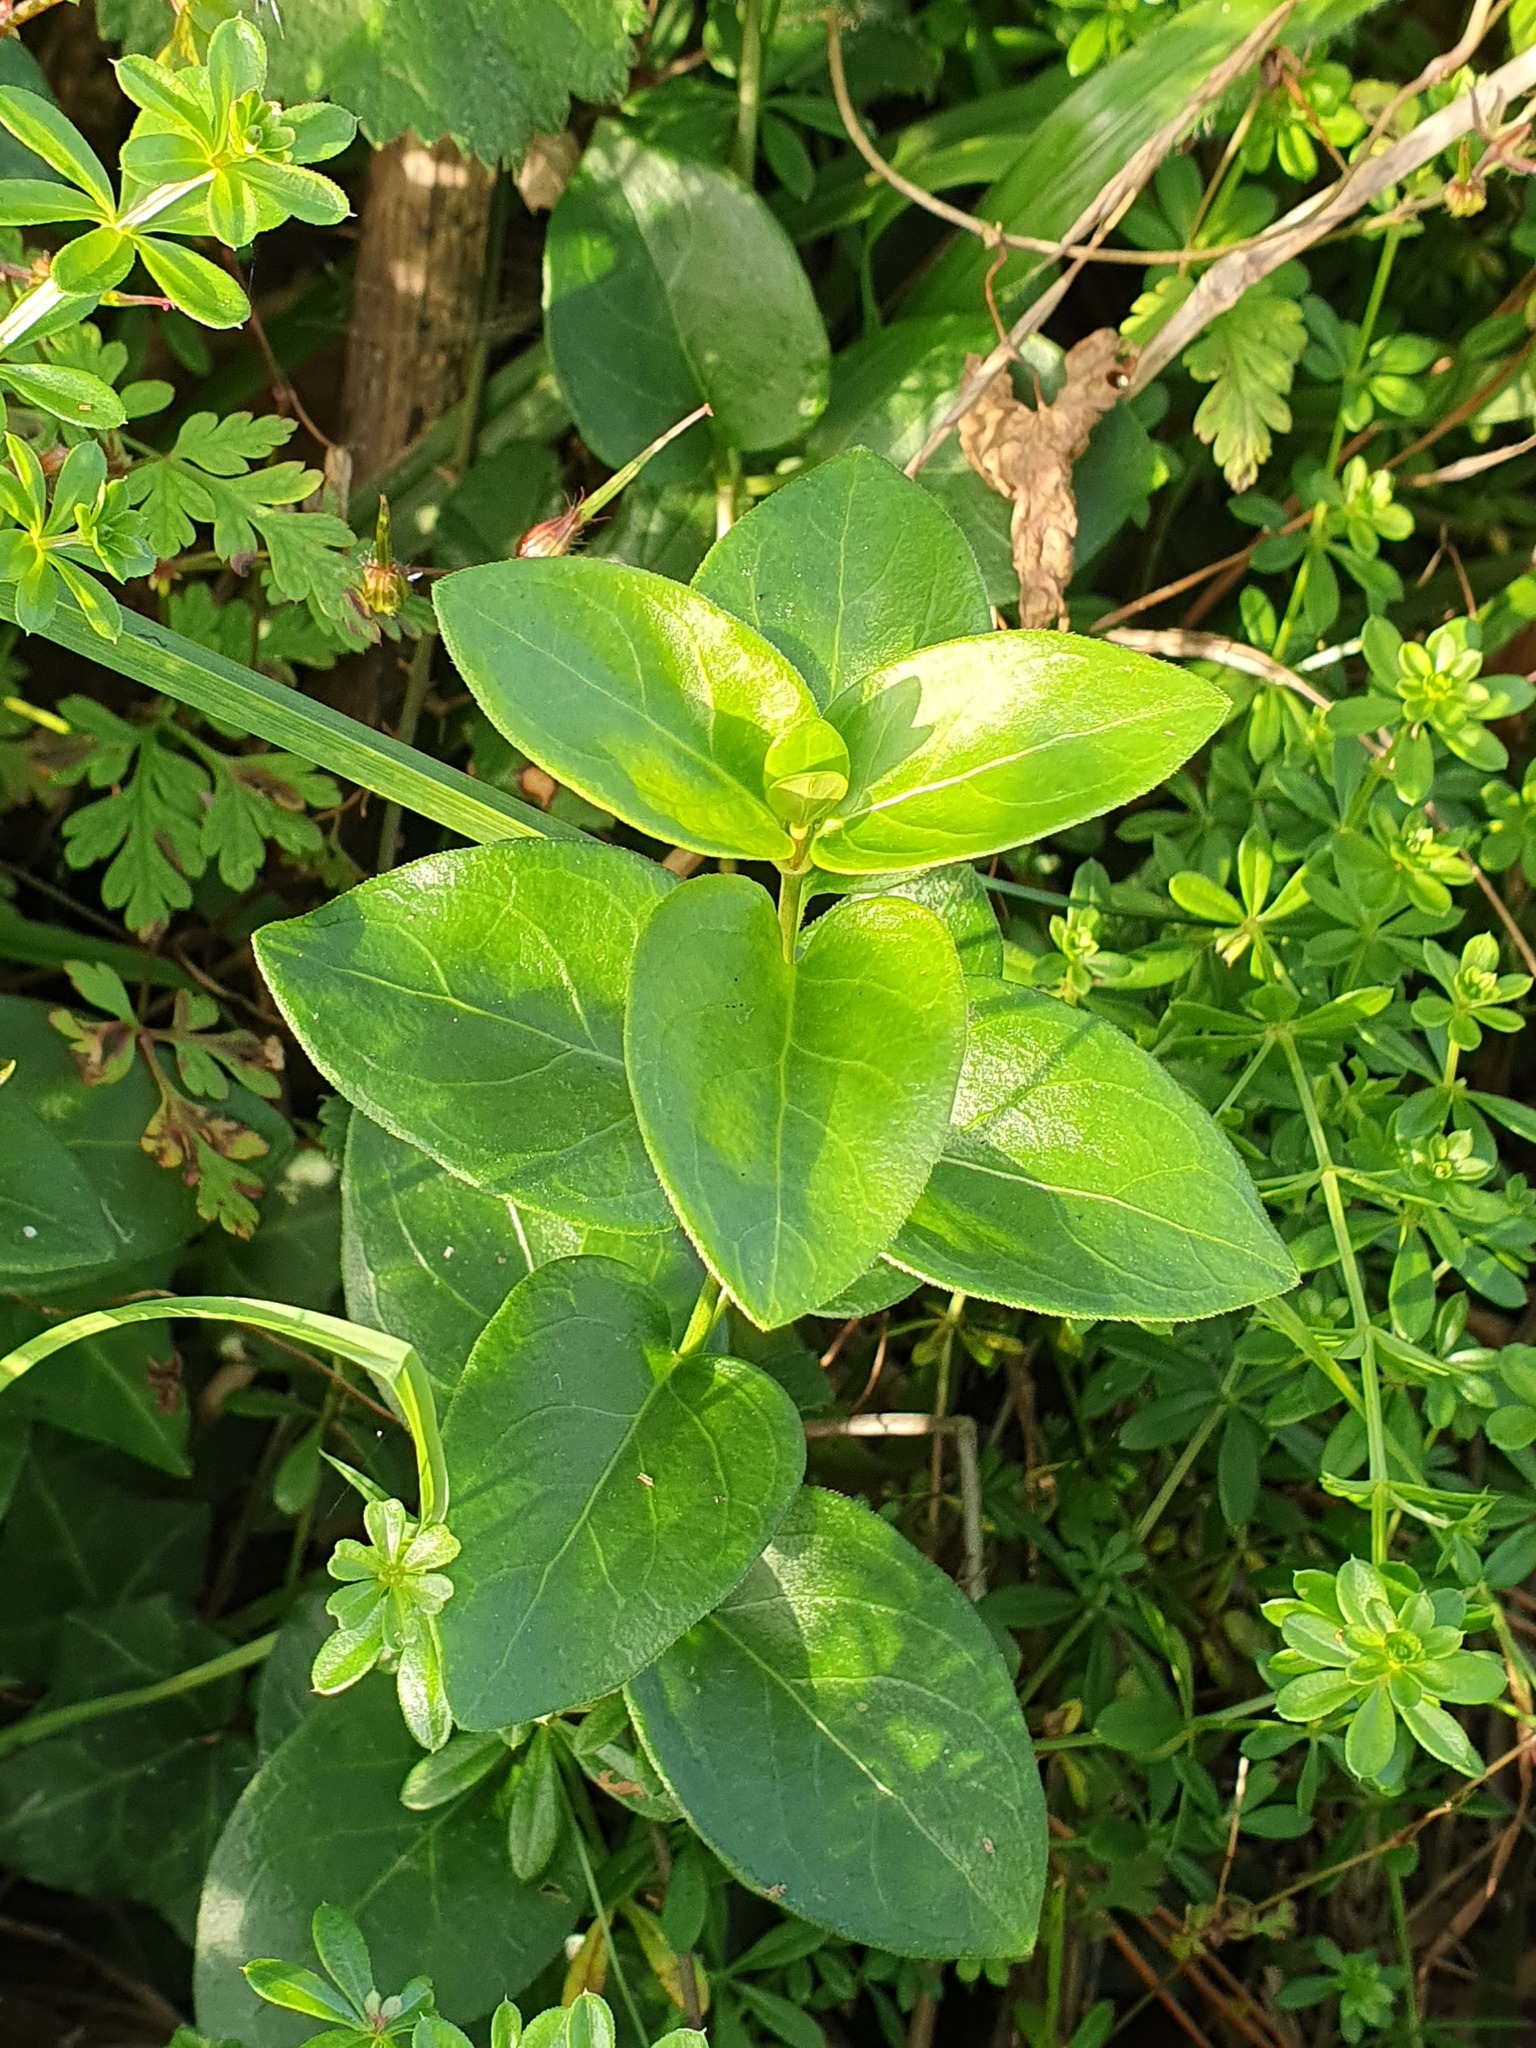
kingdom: Plantae
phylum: Tracheophyta
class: Magnoliopsida
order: Gentianales
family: Apocynaceae
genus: Vinca
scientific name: Vinca major
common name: Greater periwinkle
